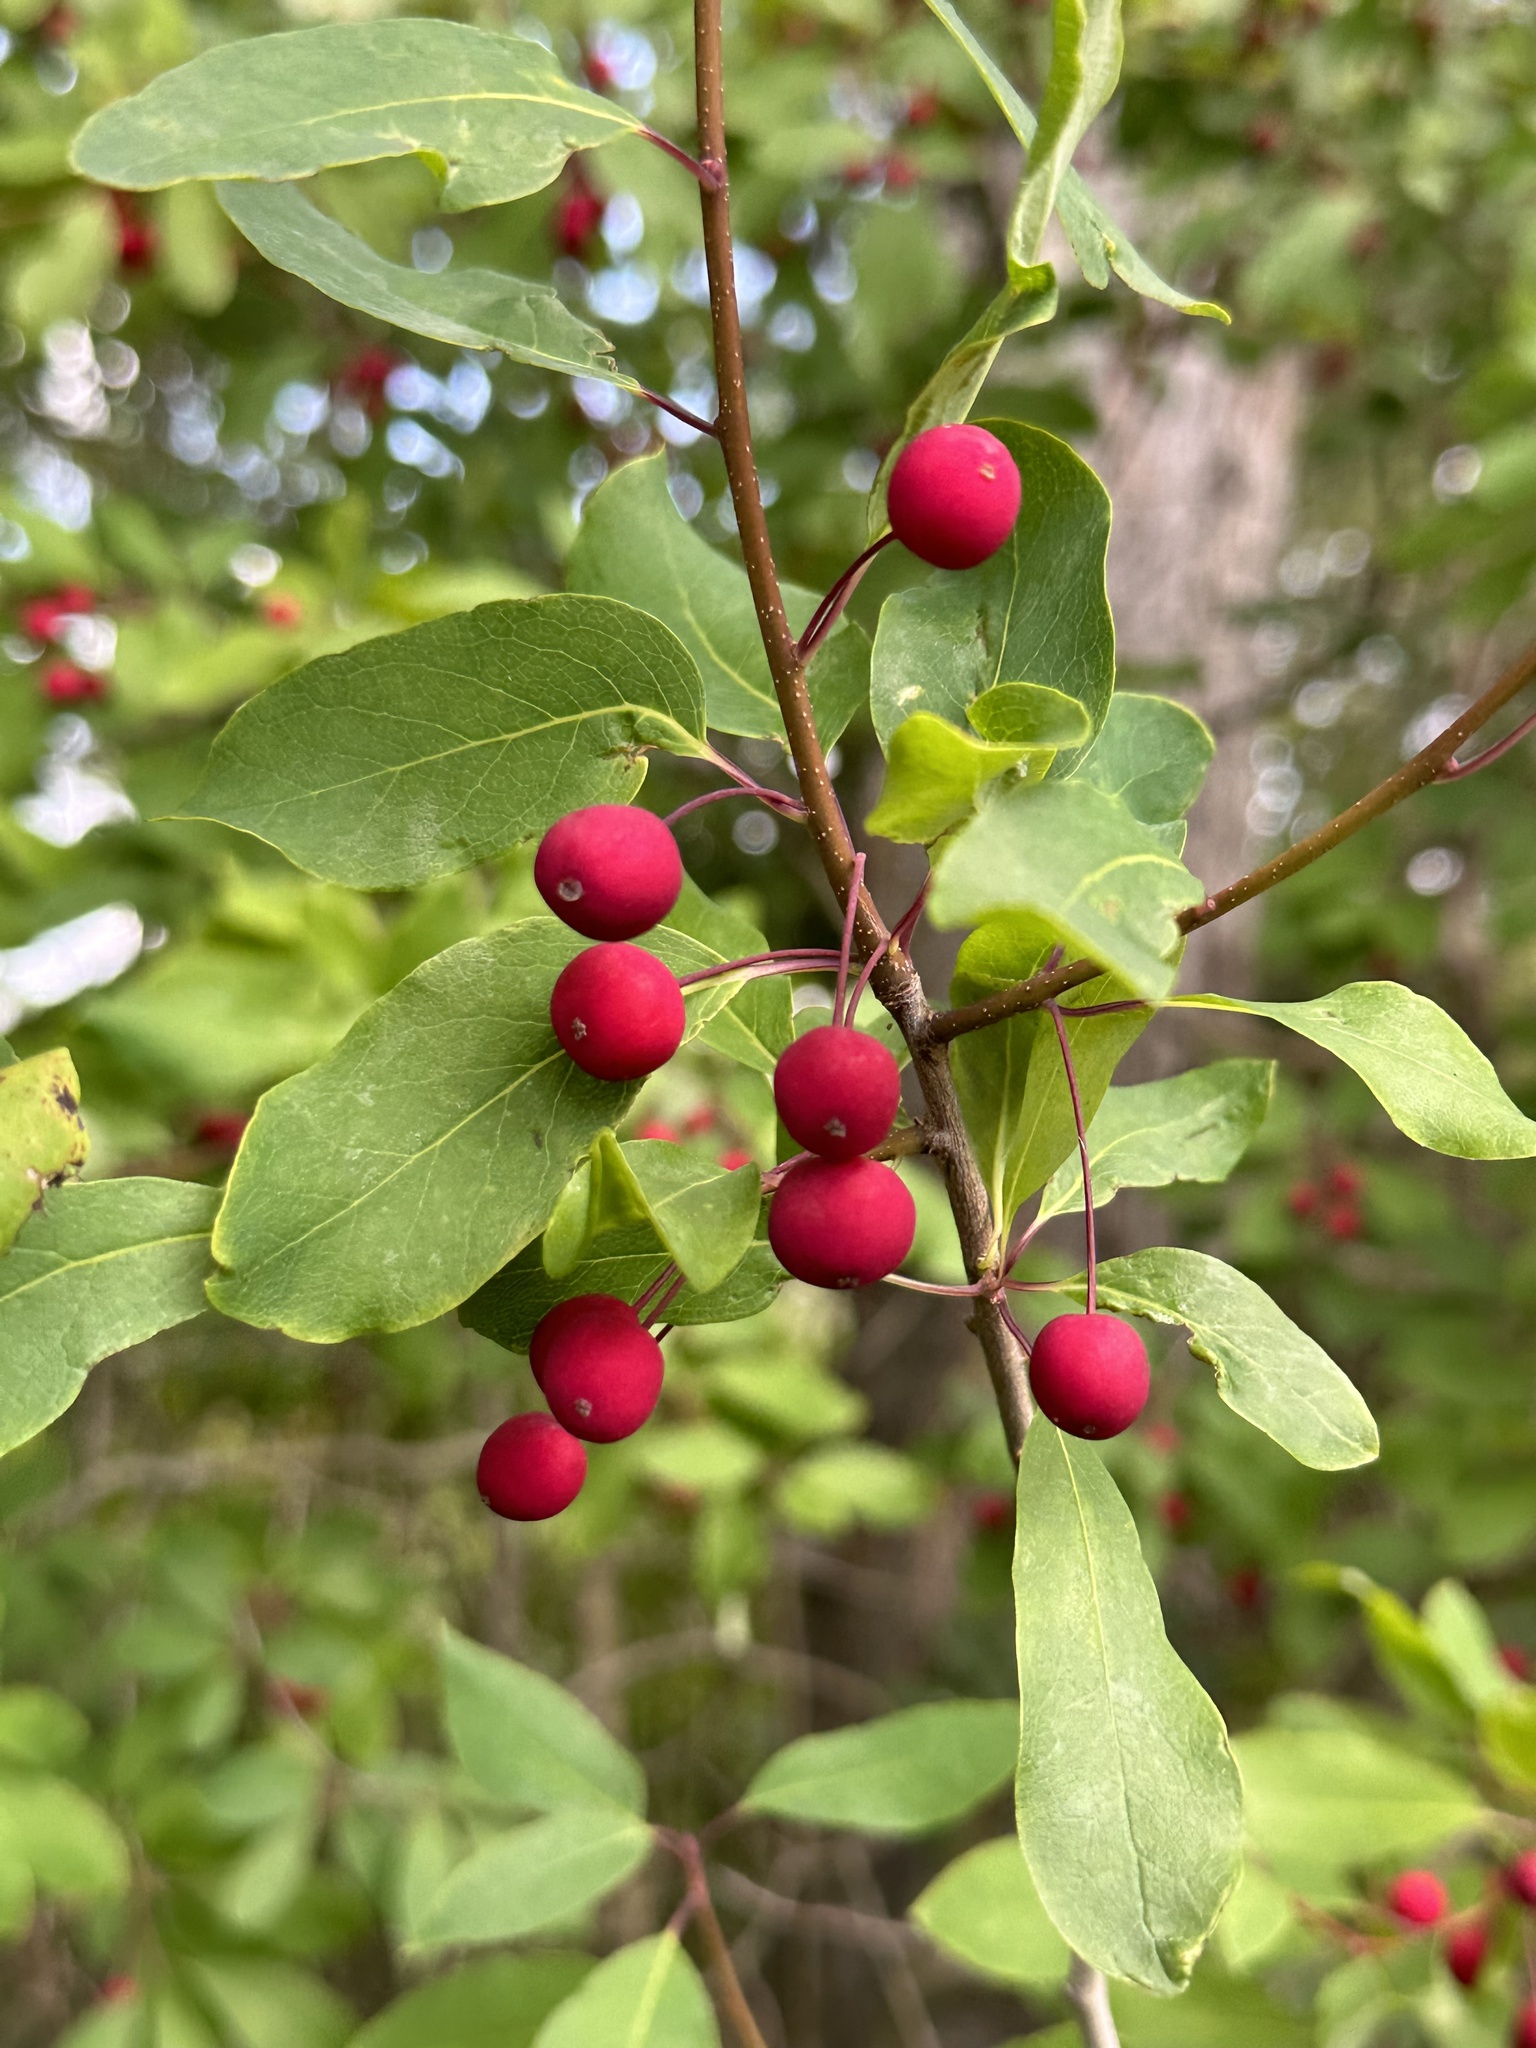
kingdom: Plantae
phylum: Tracheophyta
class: Magnoliopsida
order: Aquifoliales
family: Aquifoliaceae
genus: Ilex
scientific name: Ilex mucronata
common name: Catberry
